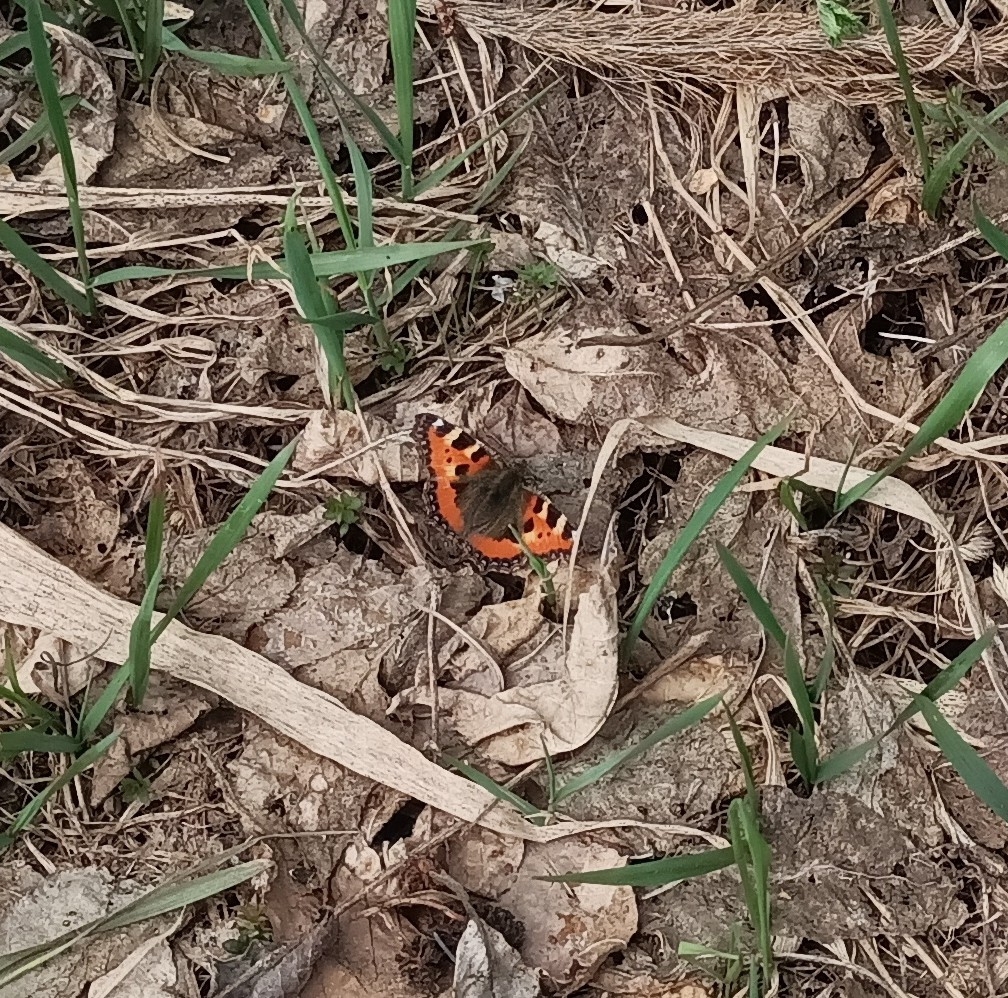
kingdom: Animalia
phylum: Arthropoda
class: Insecta
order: Lepidoptera
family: Nymphalidae
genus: Aglais
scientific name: Aglais urticae
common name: Small tortoiseshell
